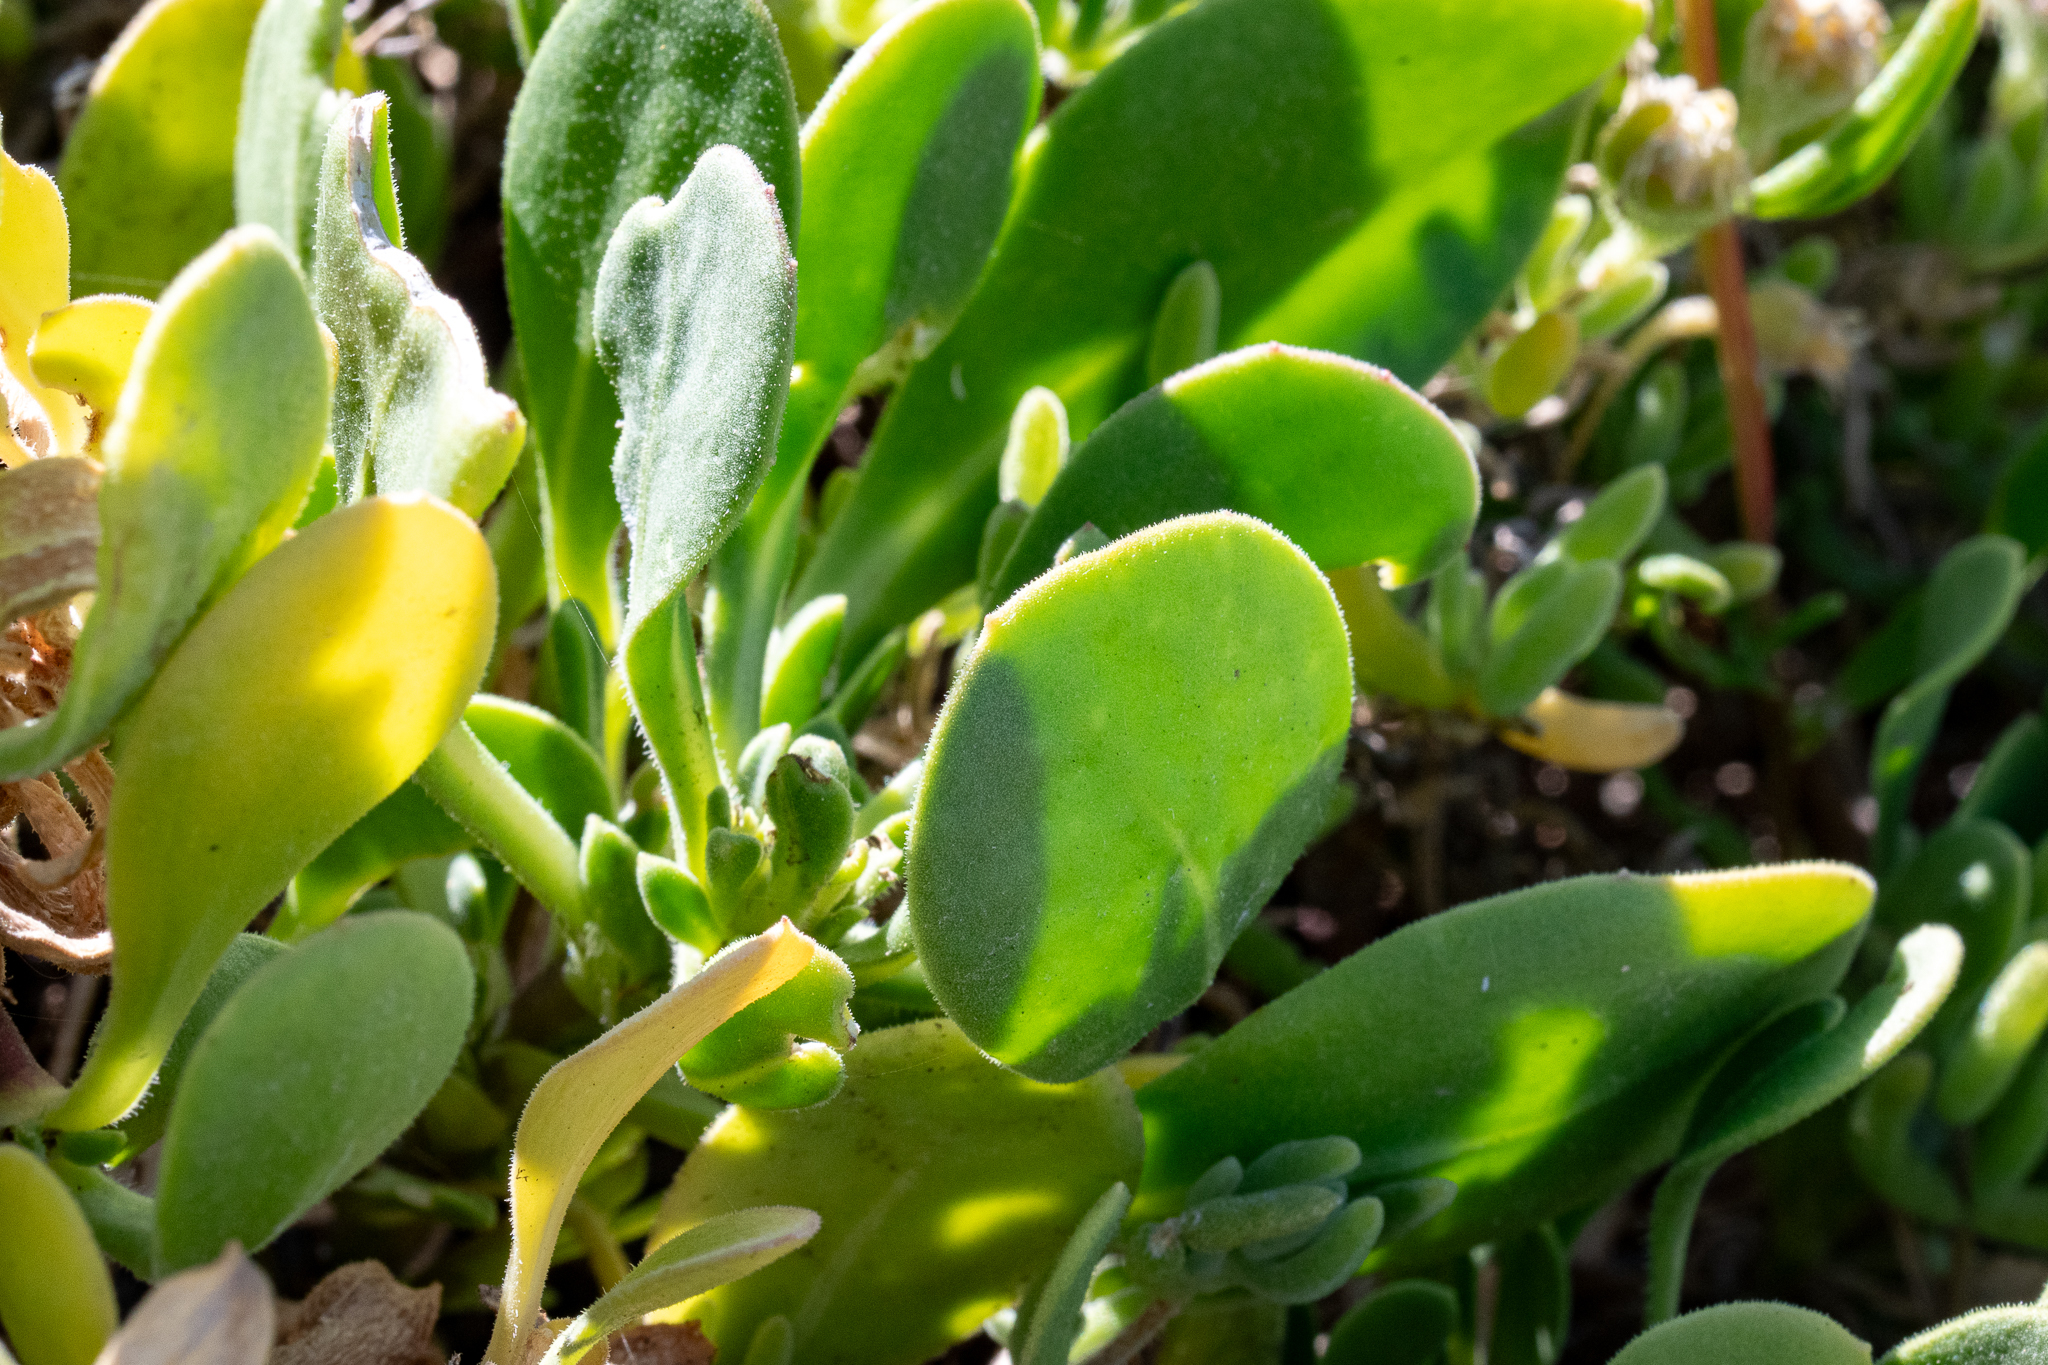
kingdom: Plantae
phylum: Tracheophyta
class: Magnoliopsida
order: Asterales
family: Asteraceae
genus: Dimorphotheca
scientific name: Dimorphotheca fruticosa
